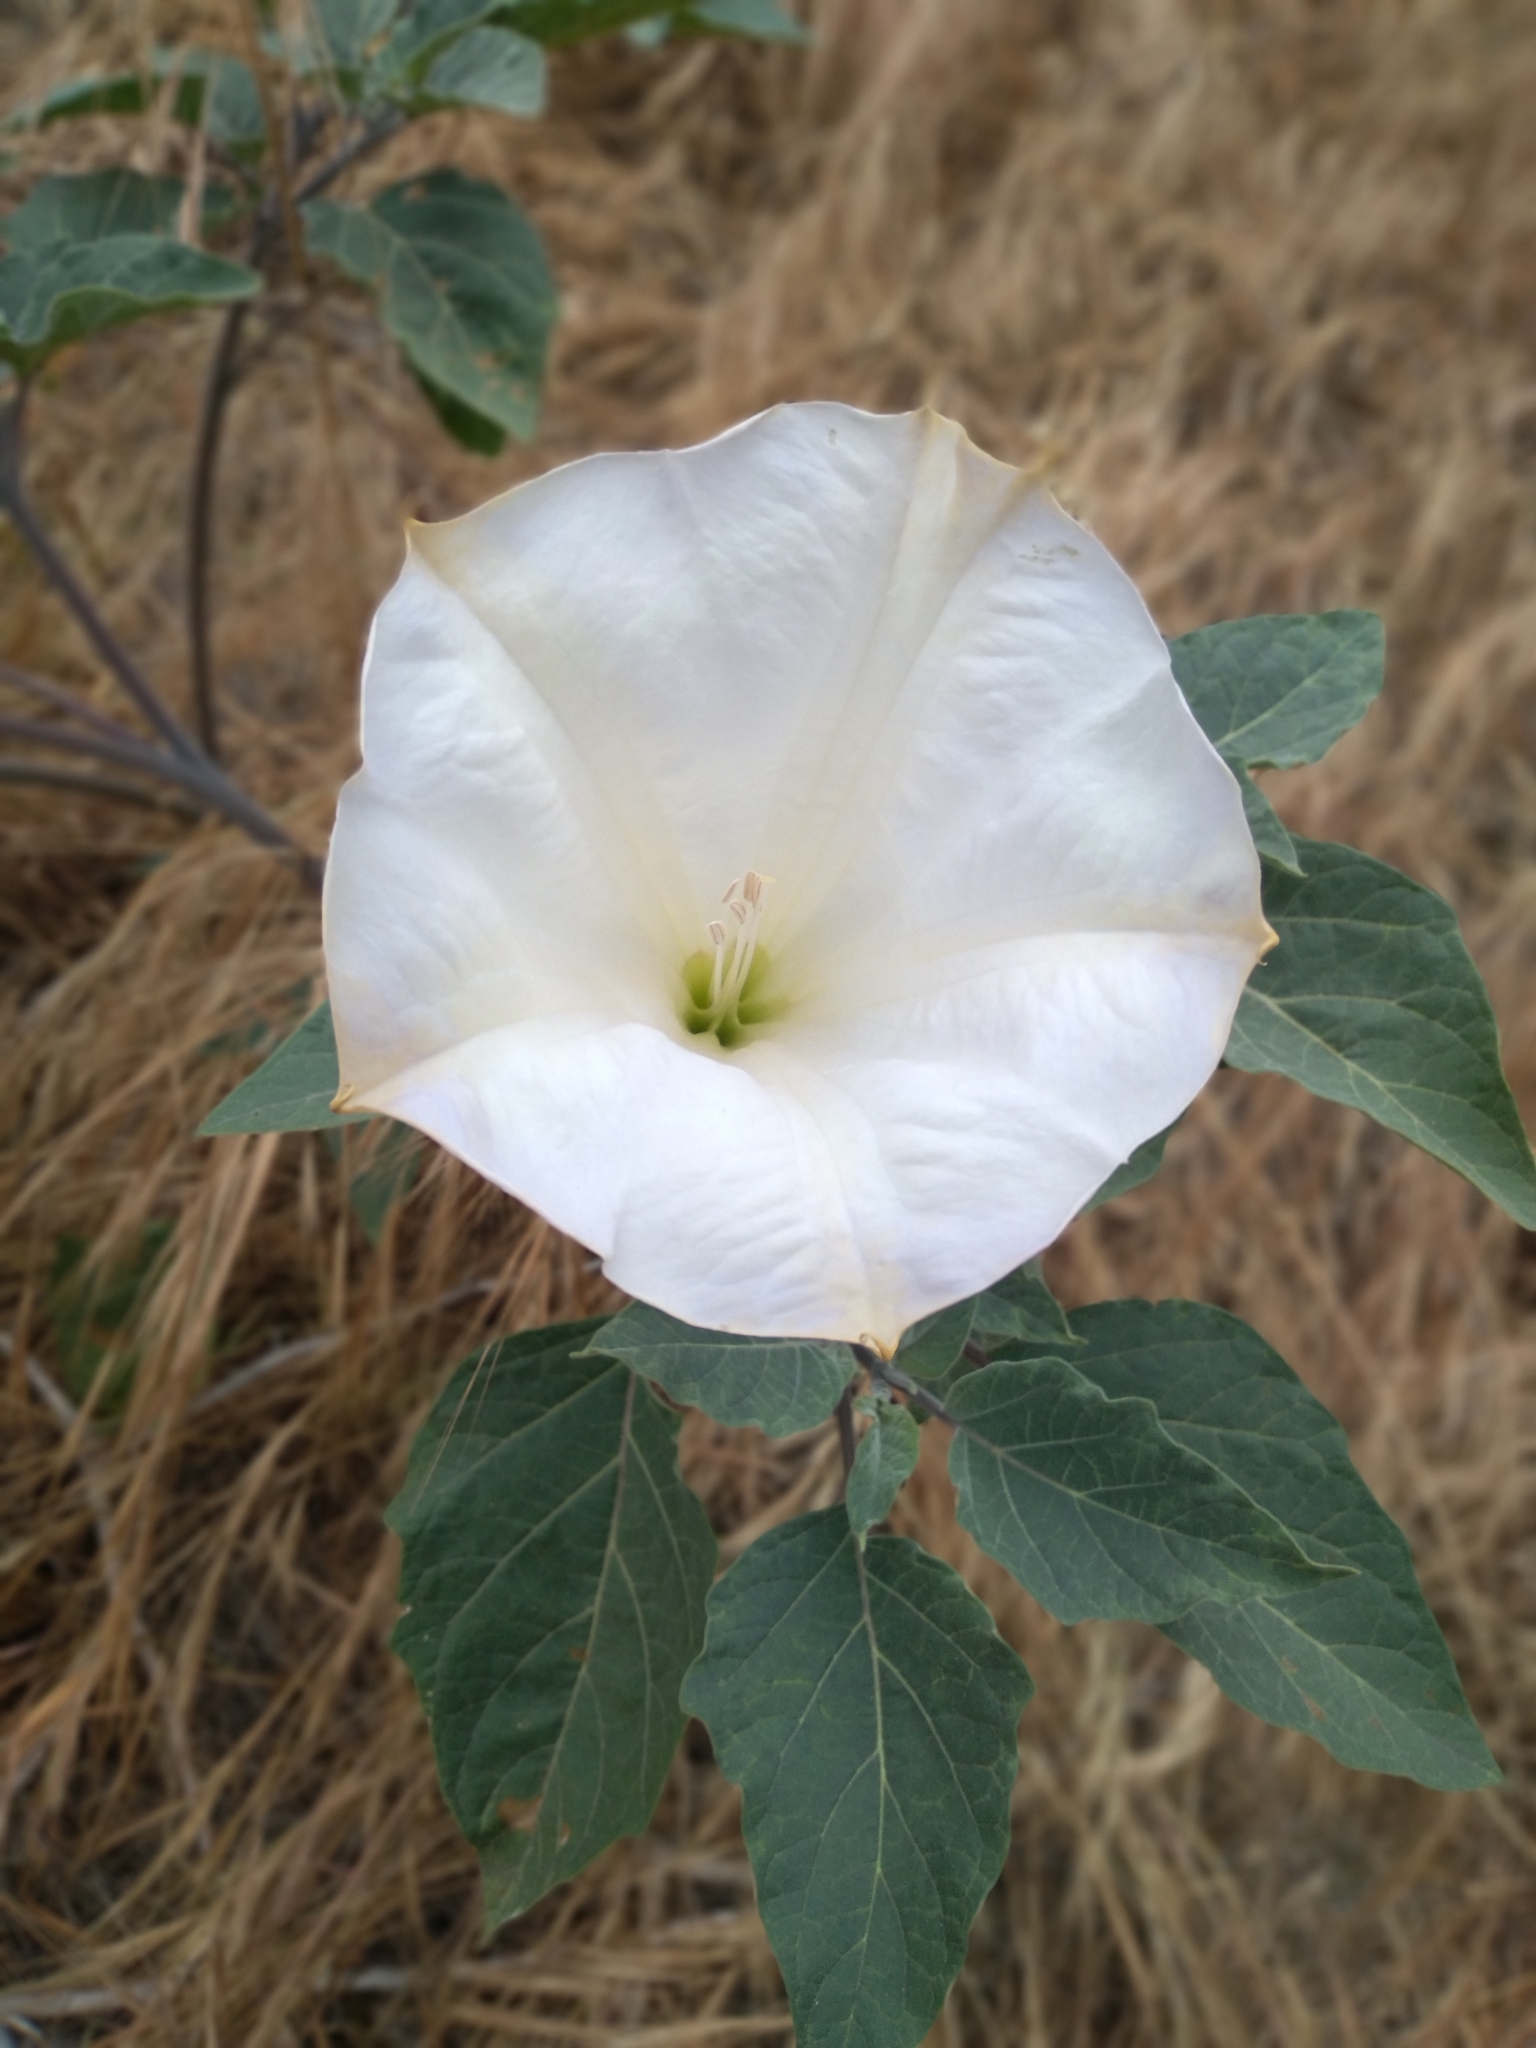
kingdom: Plantae
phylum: Tracheophyta
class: Magnoliopsida
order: Solanales
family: Solanaceae
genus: Datura
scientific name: Datura wrightii
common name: Sacred thorn-apple
